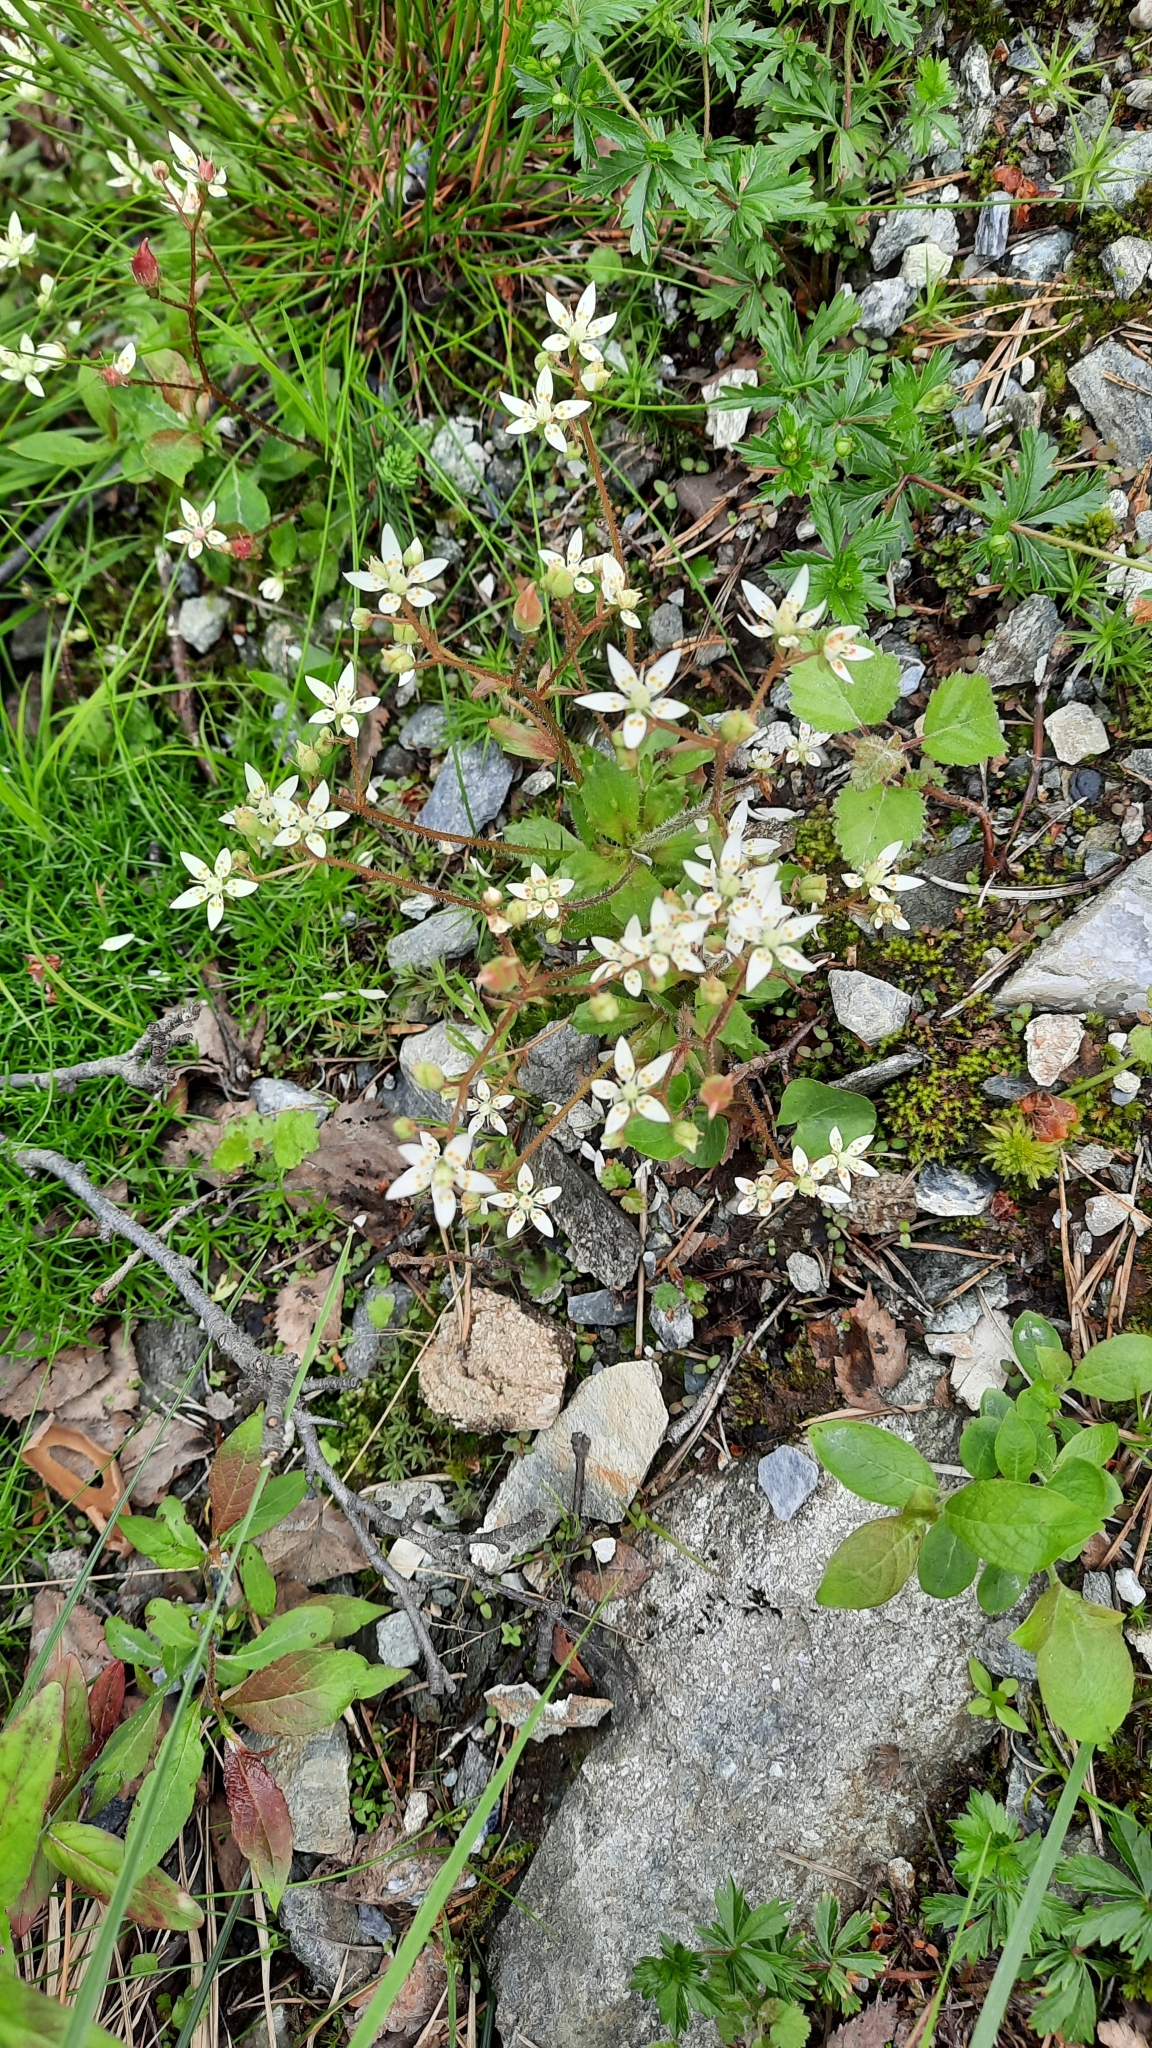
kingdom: Plantae
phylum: Tracheophyta
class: Magnoliopsida
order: Saxifragales
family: Saxifragaceae
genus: Micranthes
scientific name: Micranthes stellaris
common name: Starry saxifrage
